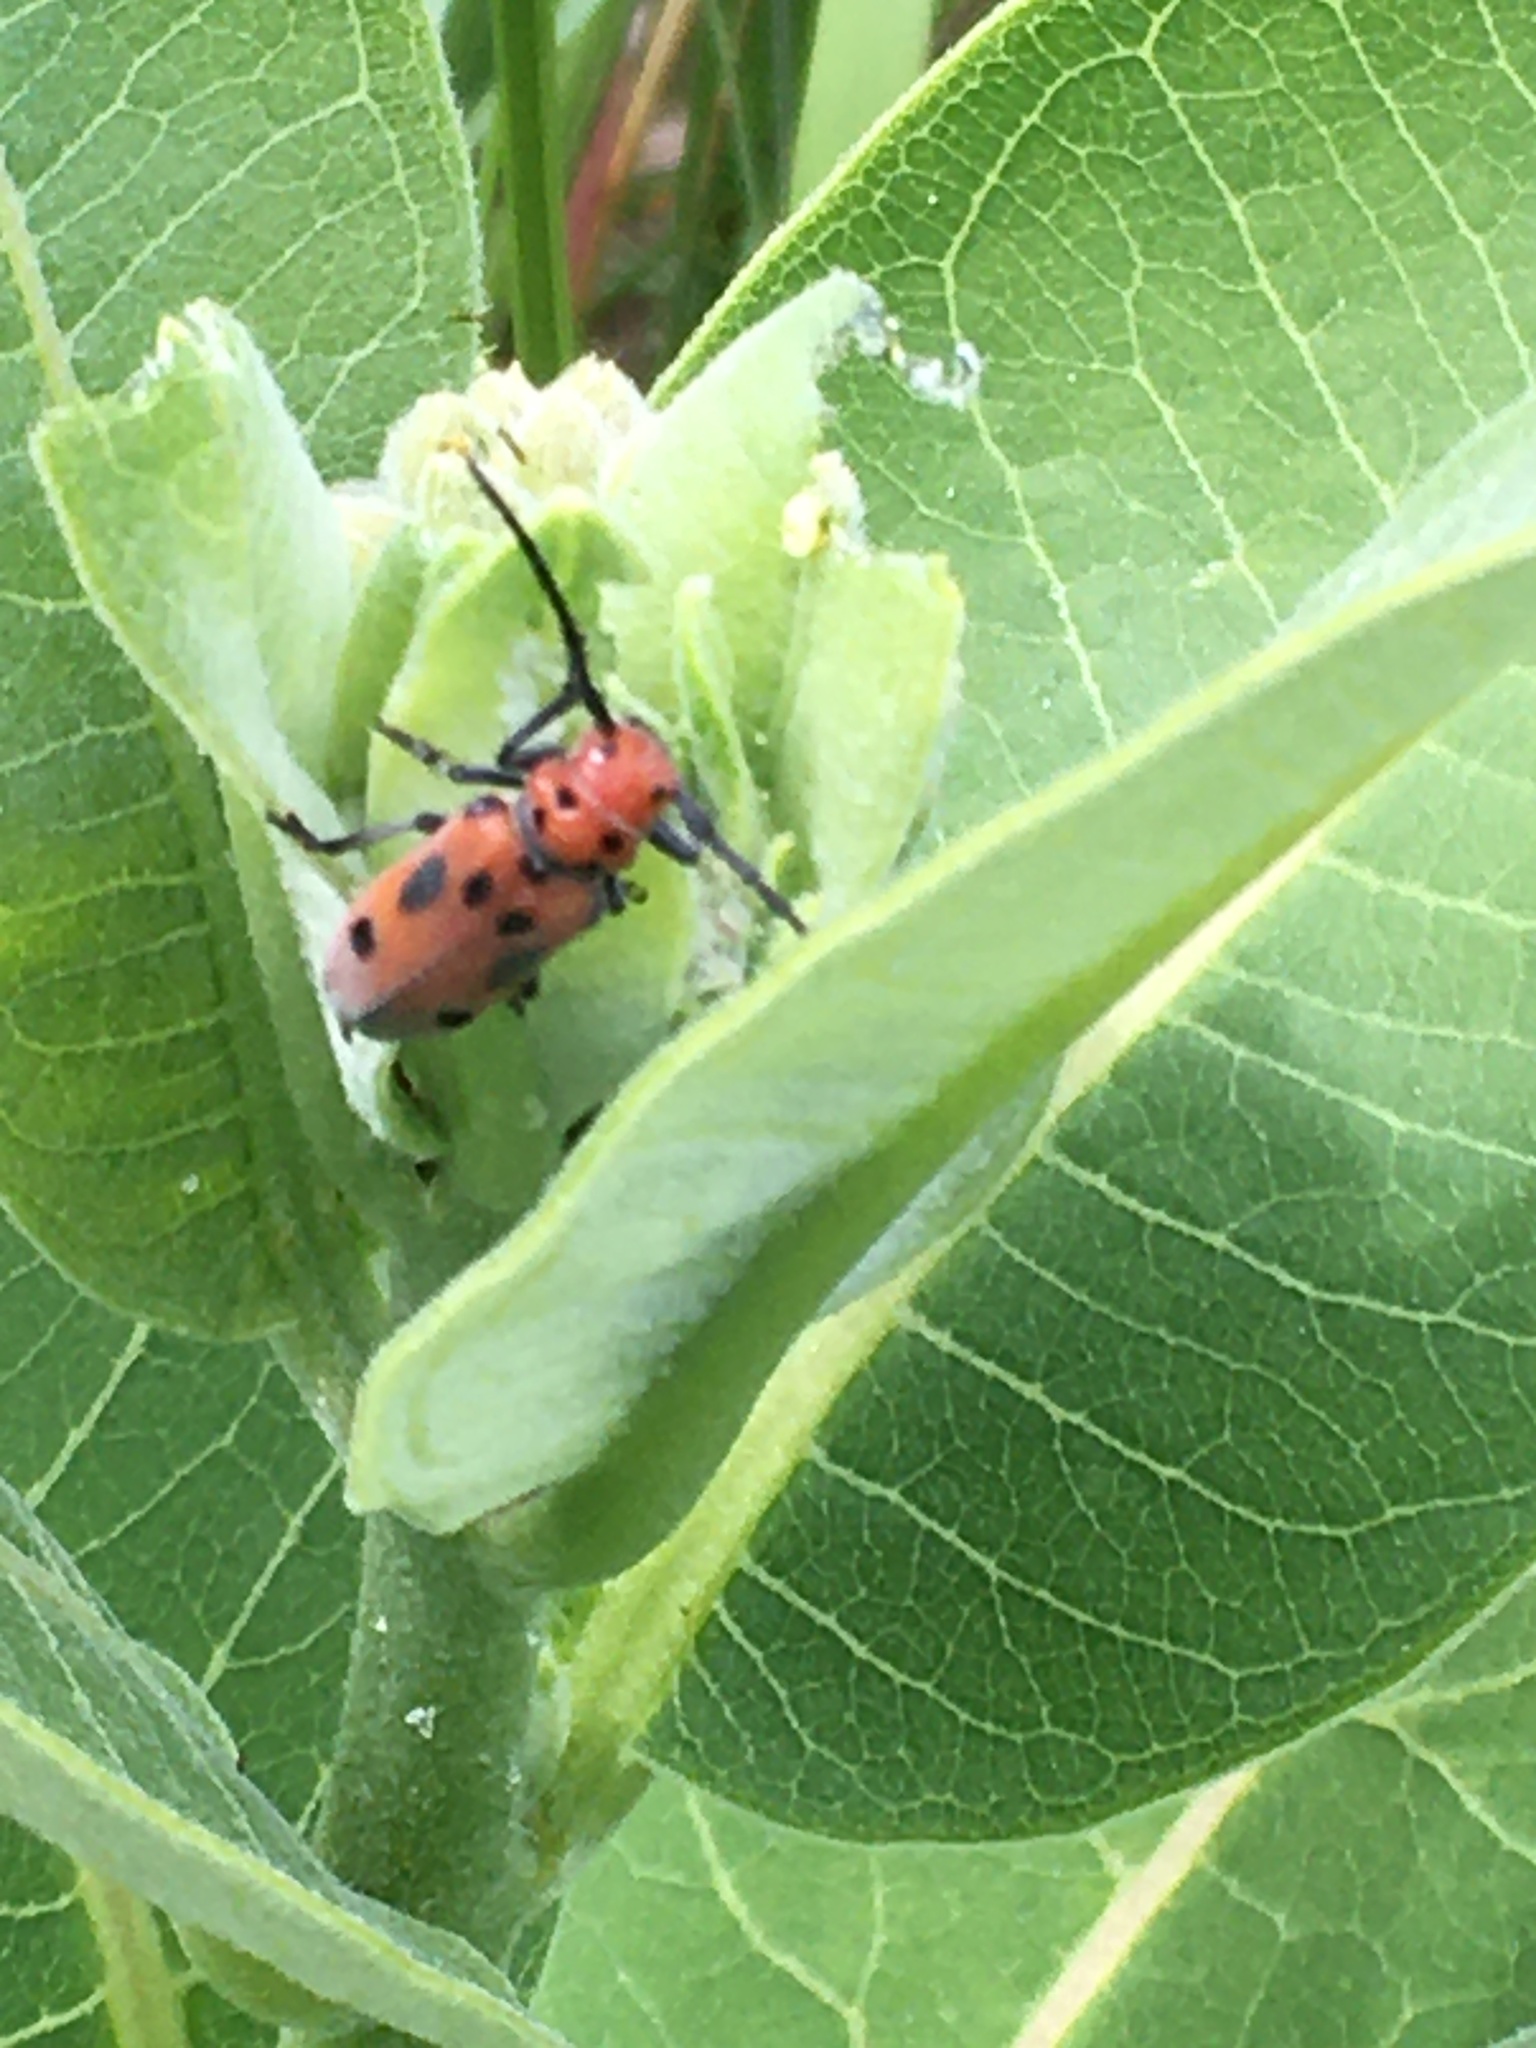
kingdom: Animalia
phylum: Arthropoda
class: Insecta
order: Coleoptera
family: Cerambycidae
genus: Tetraopes
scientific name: Tetraopes tetrophthalmus
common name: Red milkweed beetle
